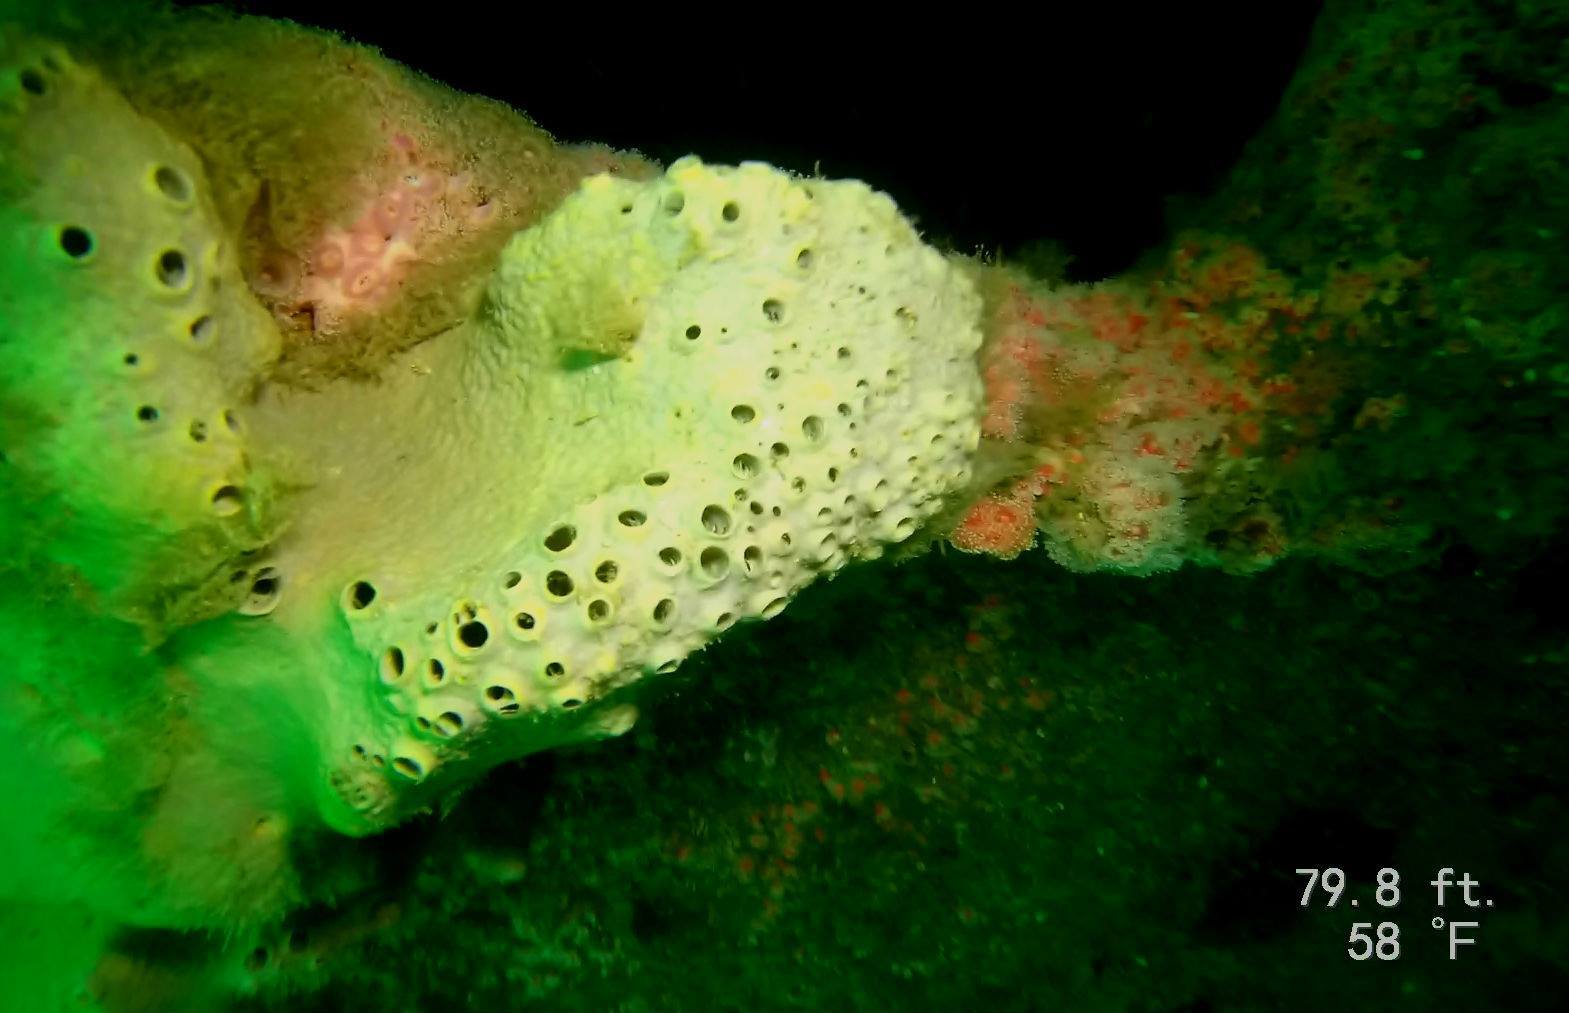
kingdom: Animalia
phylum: Porifera
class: Demospongiae
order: Clionaida
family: Clionaidae
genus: Spheciospongia
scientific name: Spheciospongia confoederata
